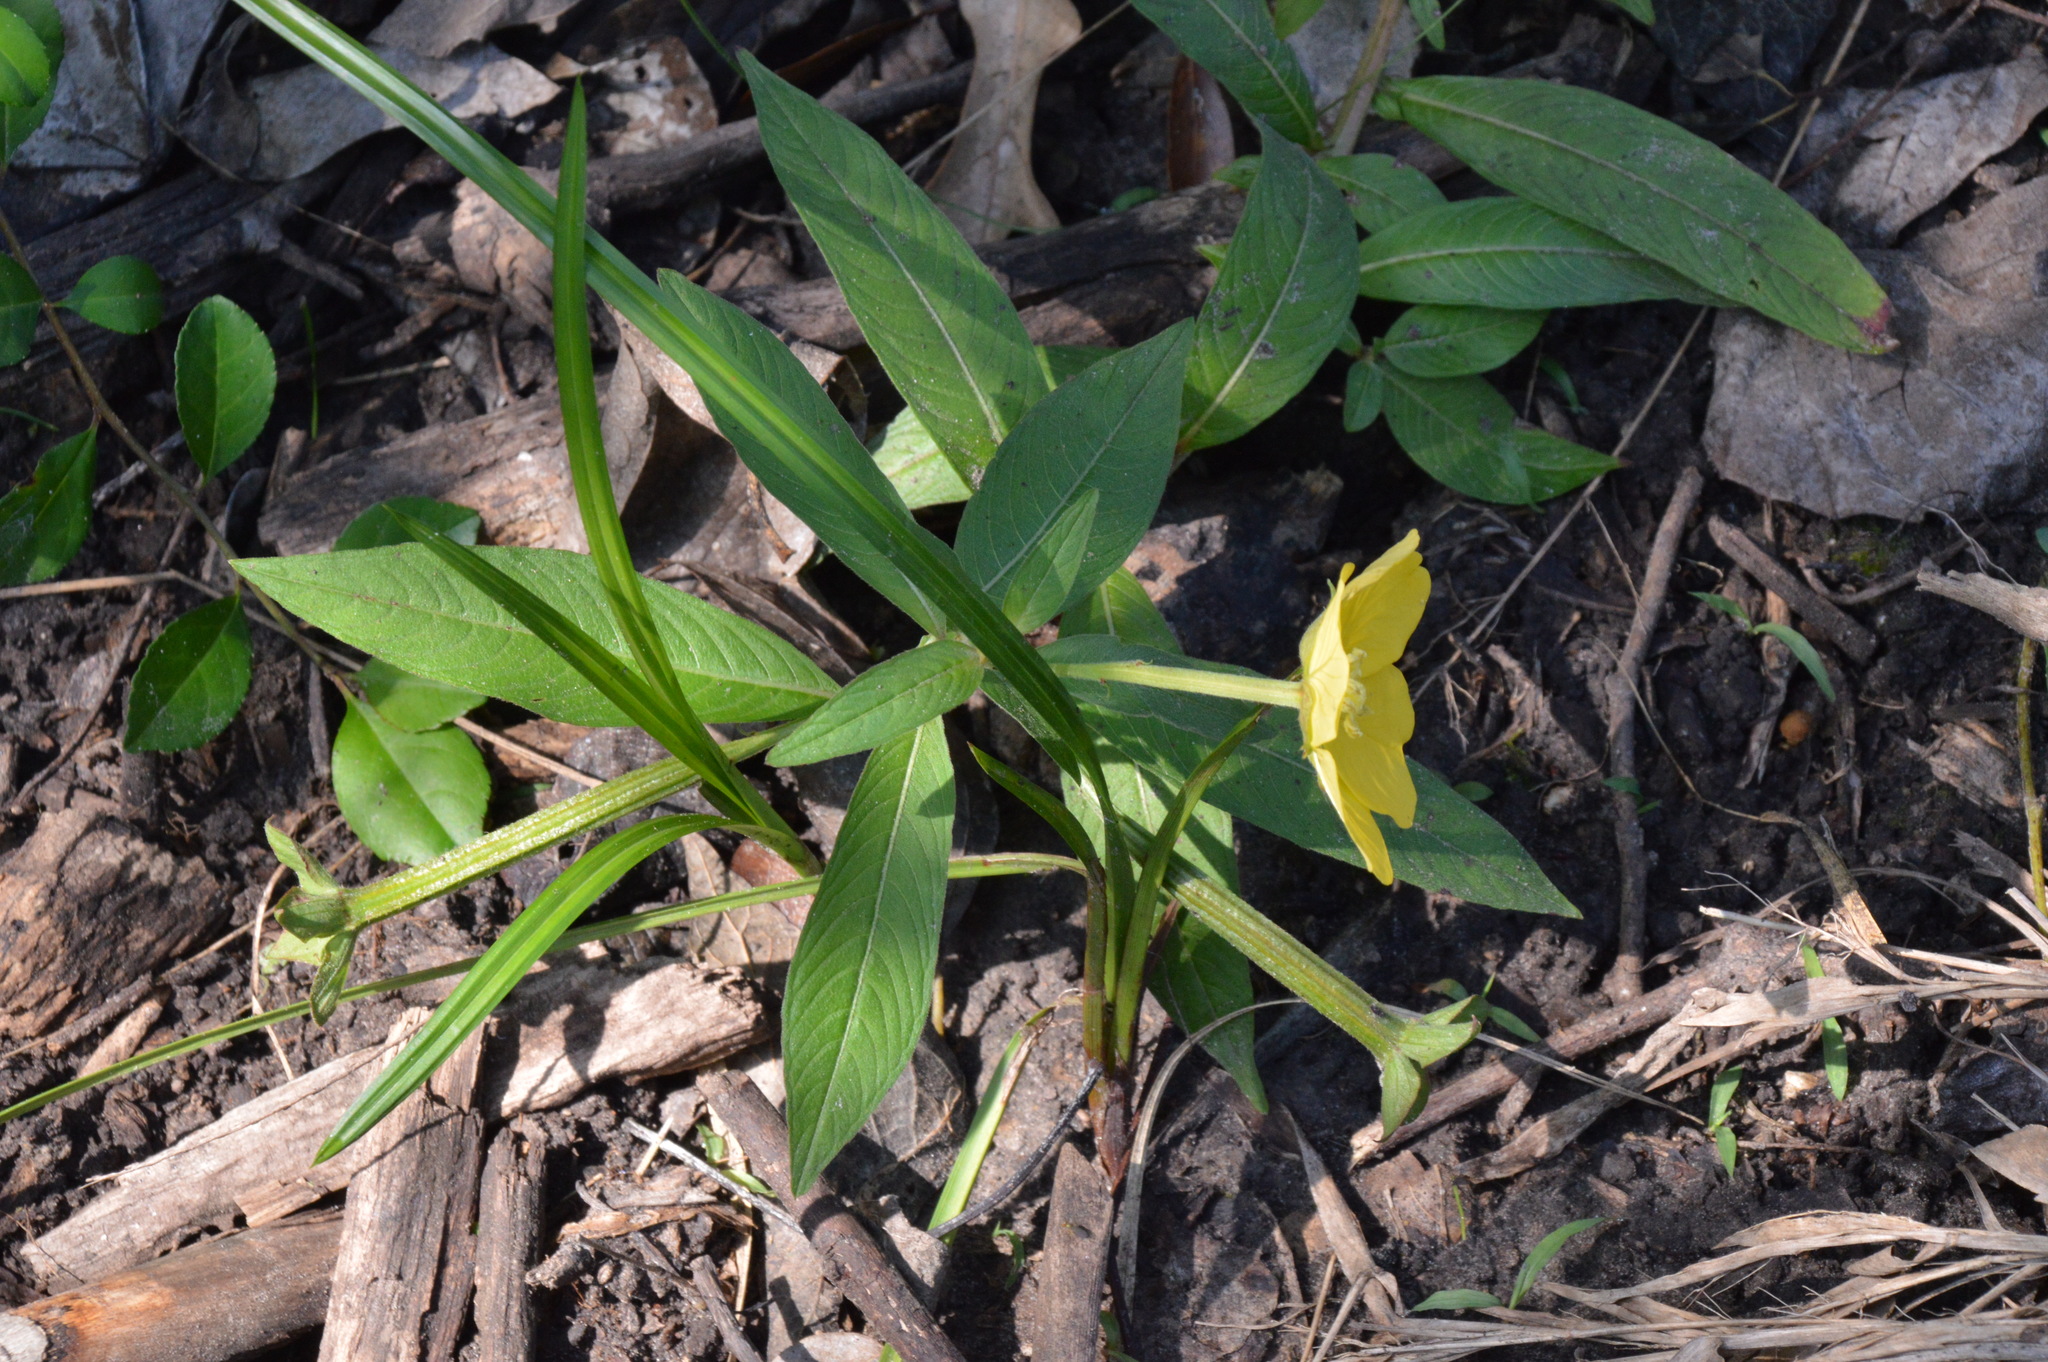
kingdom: Plantae
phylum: Tracheophyta
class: Magnoliopsida
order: Myrtales
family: Onagraceae
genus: Ludwigia
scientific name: Ludwigia octovalvis
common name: Water-primrose
